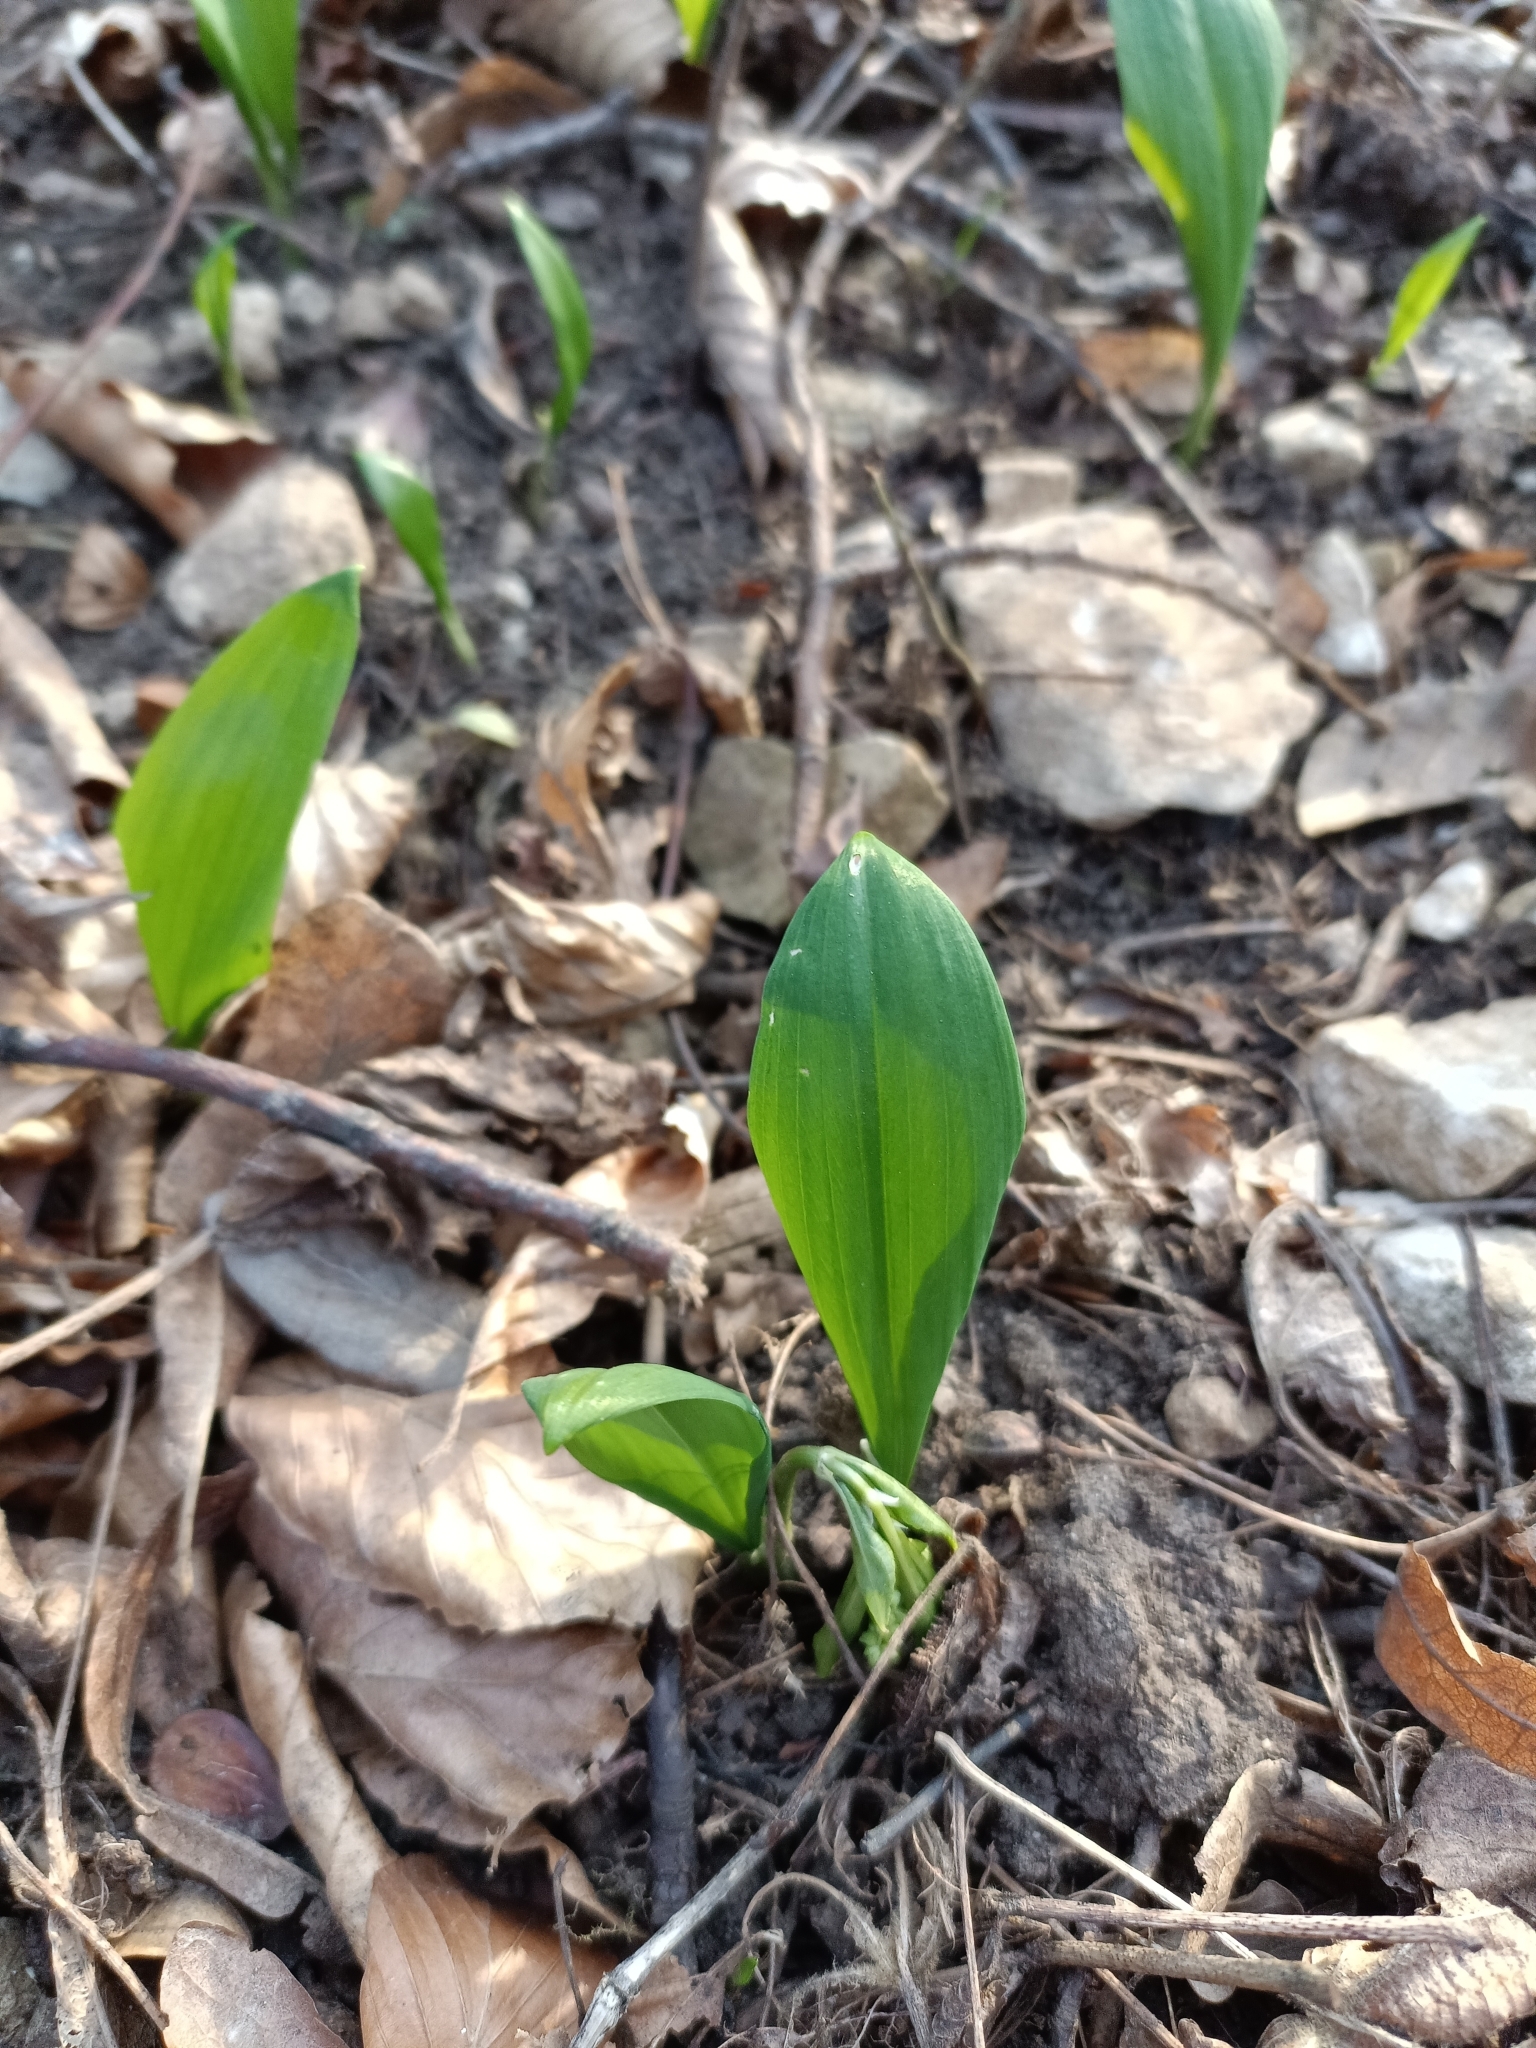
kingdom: Plantae
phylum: Tracheophyta
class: Liliopsida
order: Asparagales
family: Amaryllidaceae
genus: Allium
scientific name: Allium ursinum
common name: Ramsons
